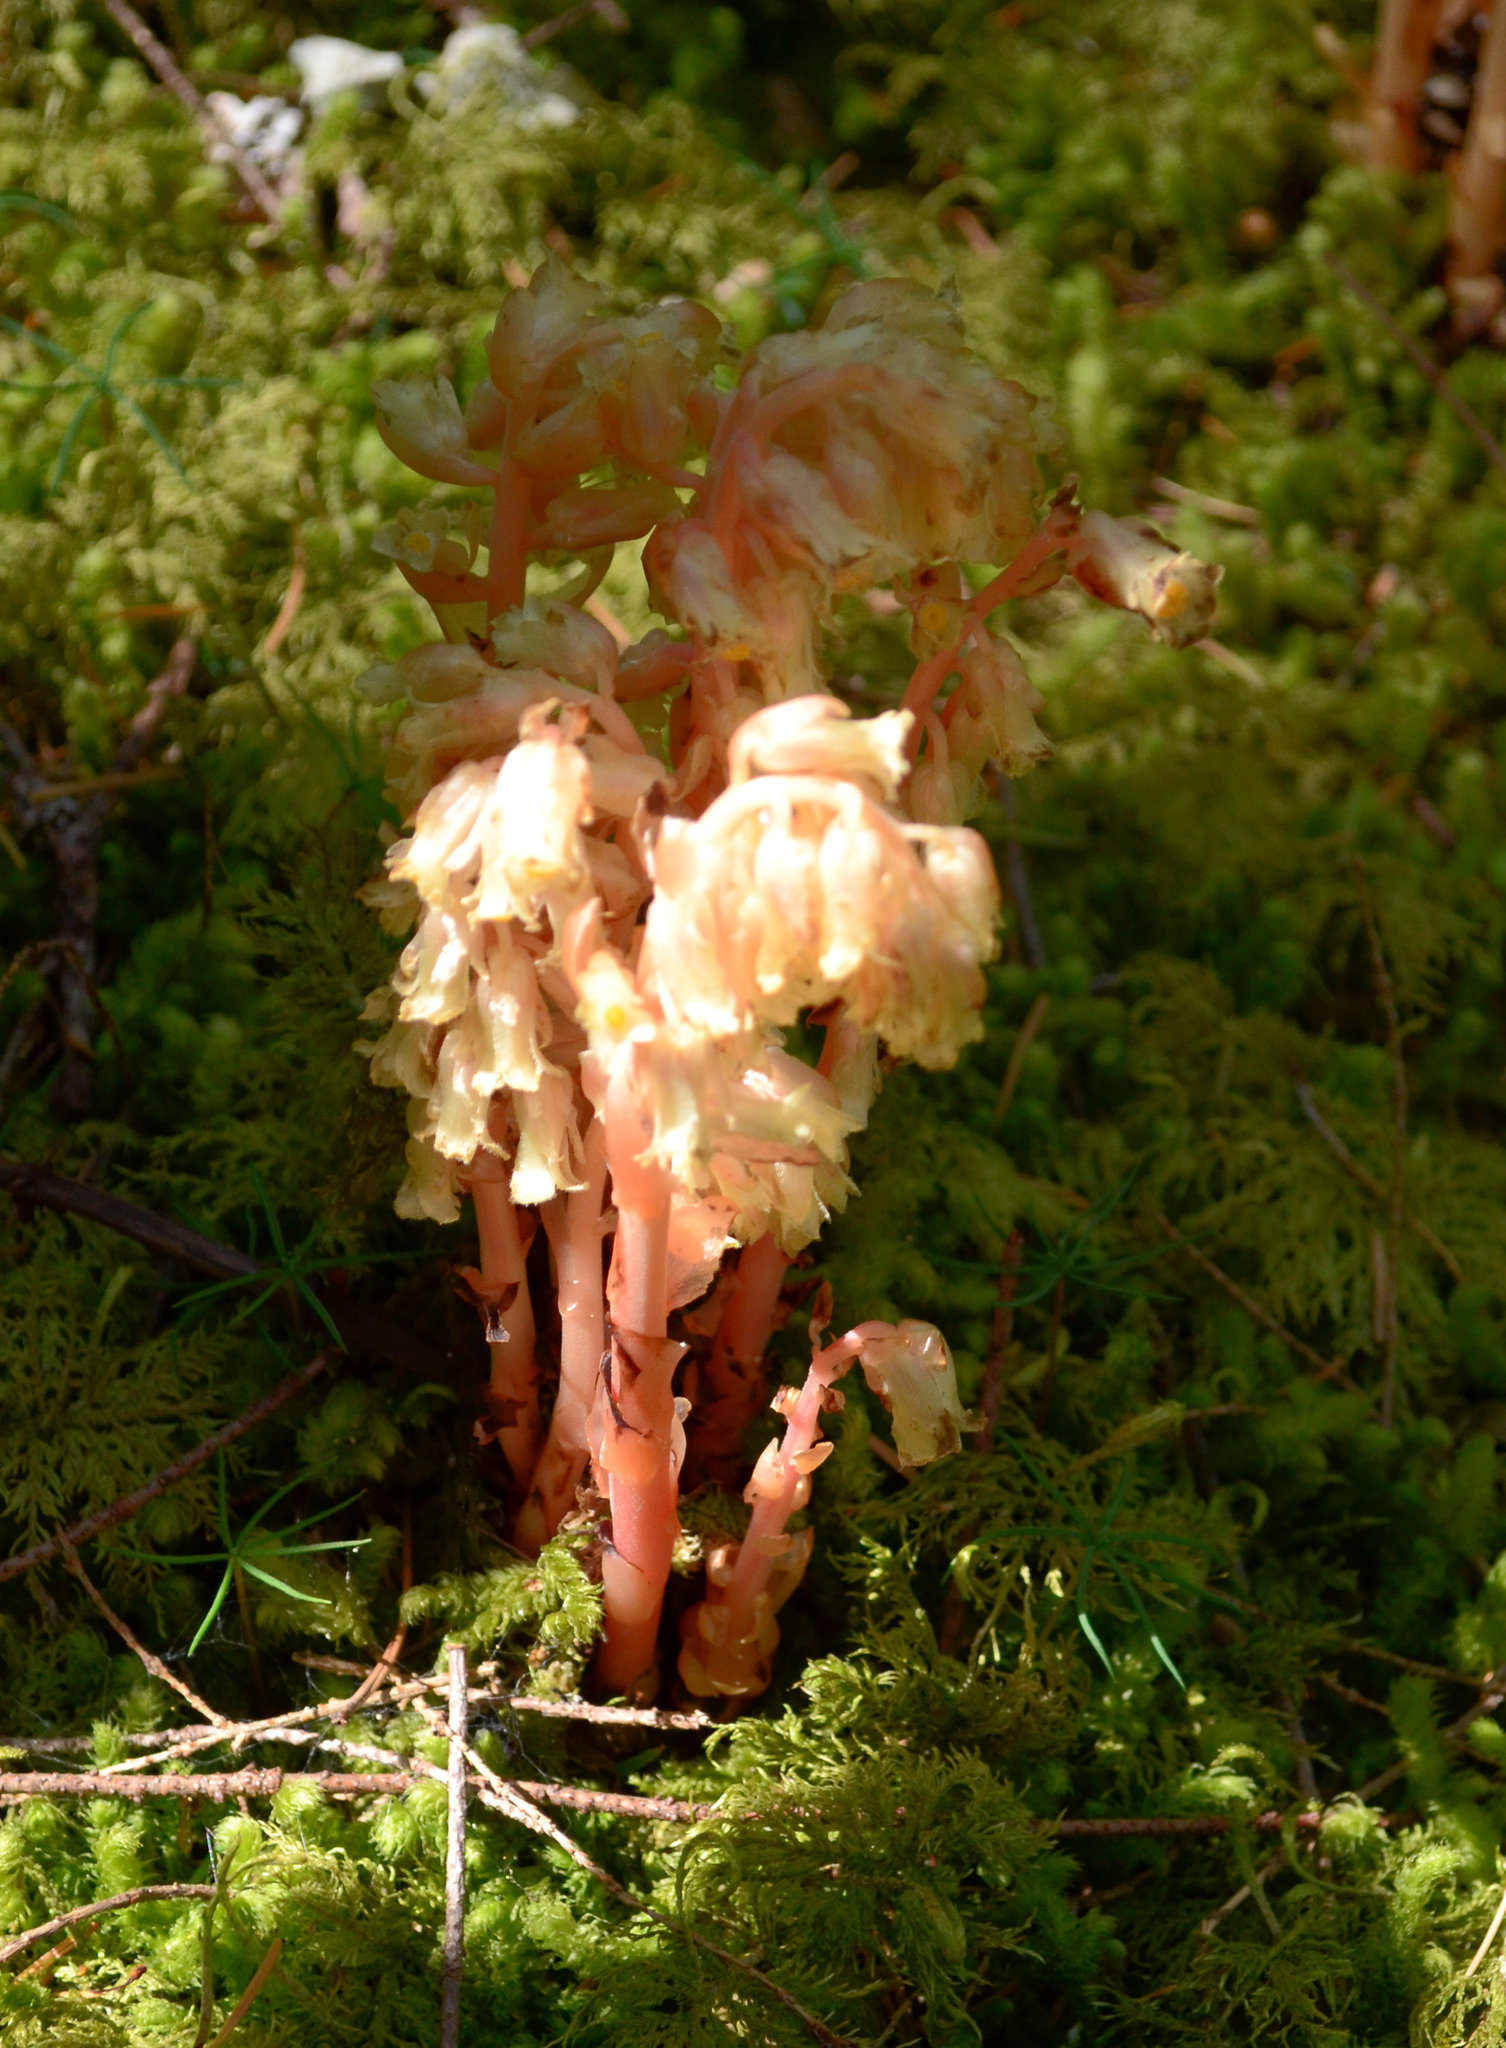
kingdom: Plantae
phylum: Tracheophyta
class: Magnoliopsida
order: Ericales
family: Ericaceae
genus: Hypopitys
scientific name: Hypopitys monotropa
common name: Yellow bird's-nest
